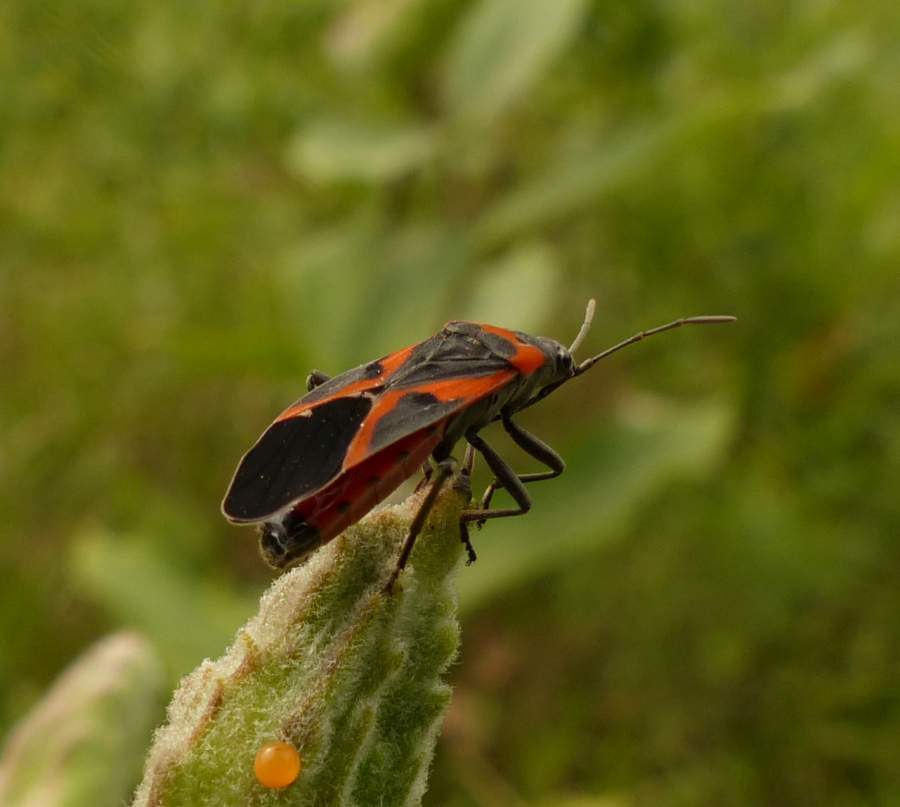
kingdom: Animalia
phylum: Arthropoda
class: Insecta
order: Hemiptera
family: Lygaeidae
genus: Lygaeus
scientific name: Lygaeus kalmii
